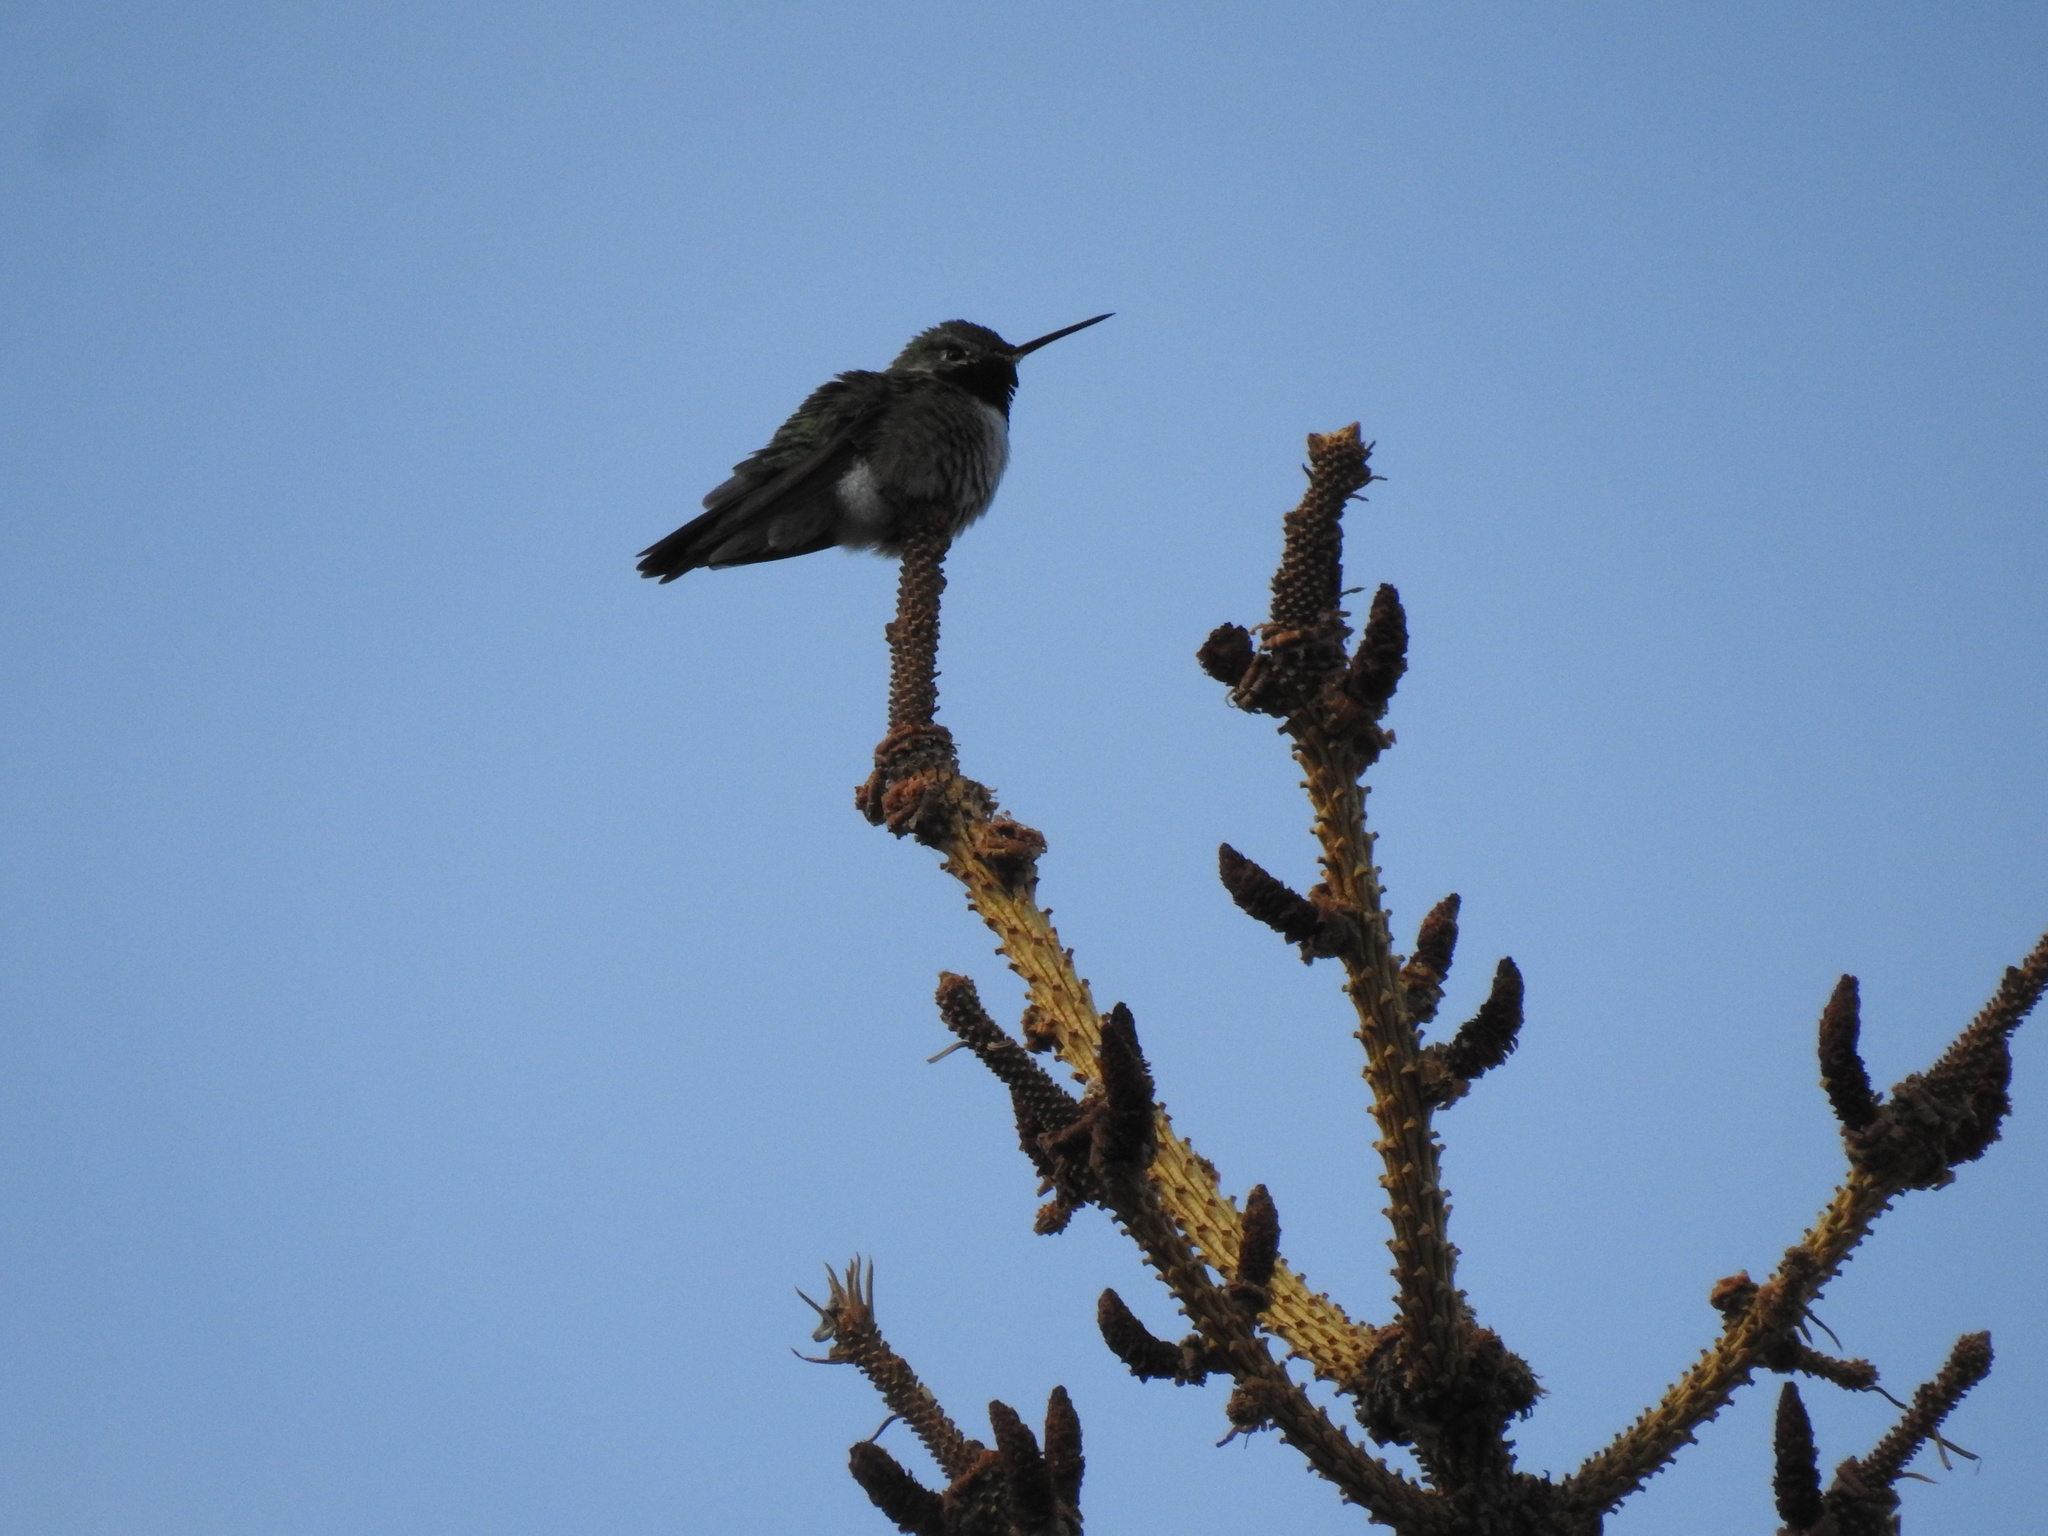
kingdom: Animalia
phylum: Chordata
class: Aves
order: Apodiformes
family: Trochilidae
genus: Selasphorus
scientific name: Selasphorus platycercus
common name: Broad-tailed hummingbird
